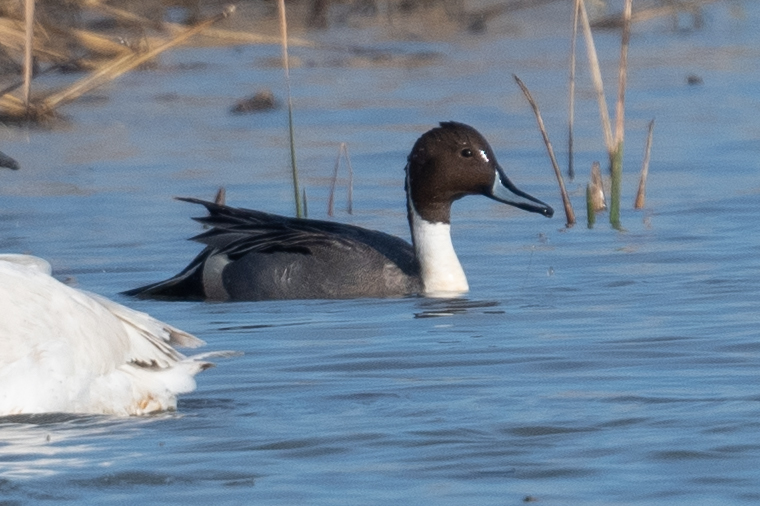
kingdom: Animalia
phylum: Chordata
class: Aves
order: Anseriformes
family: Anatidae
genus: Anas
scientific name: Anas acuta
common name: Northern pintail
